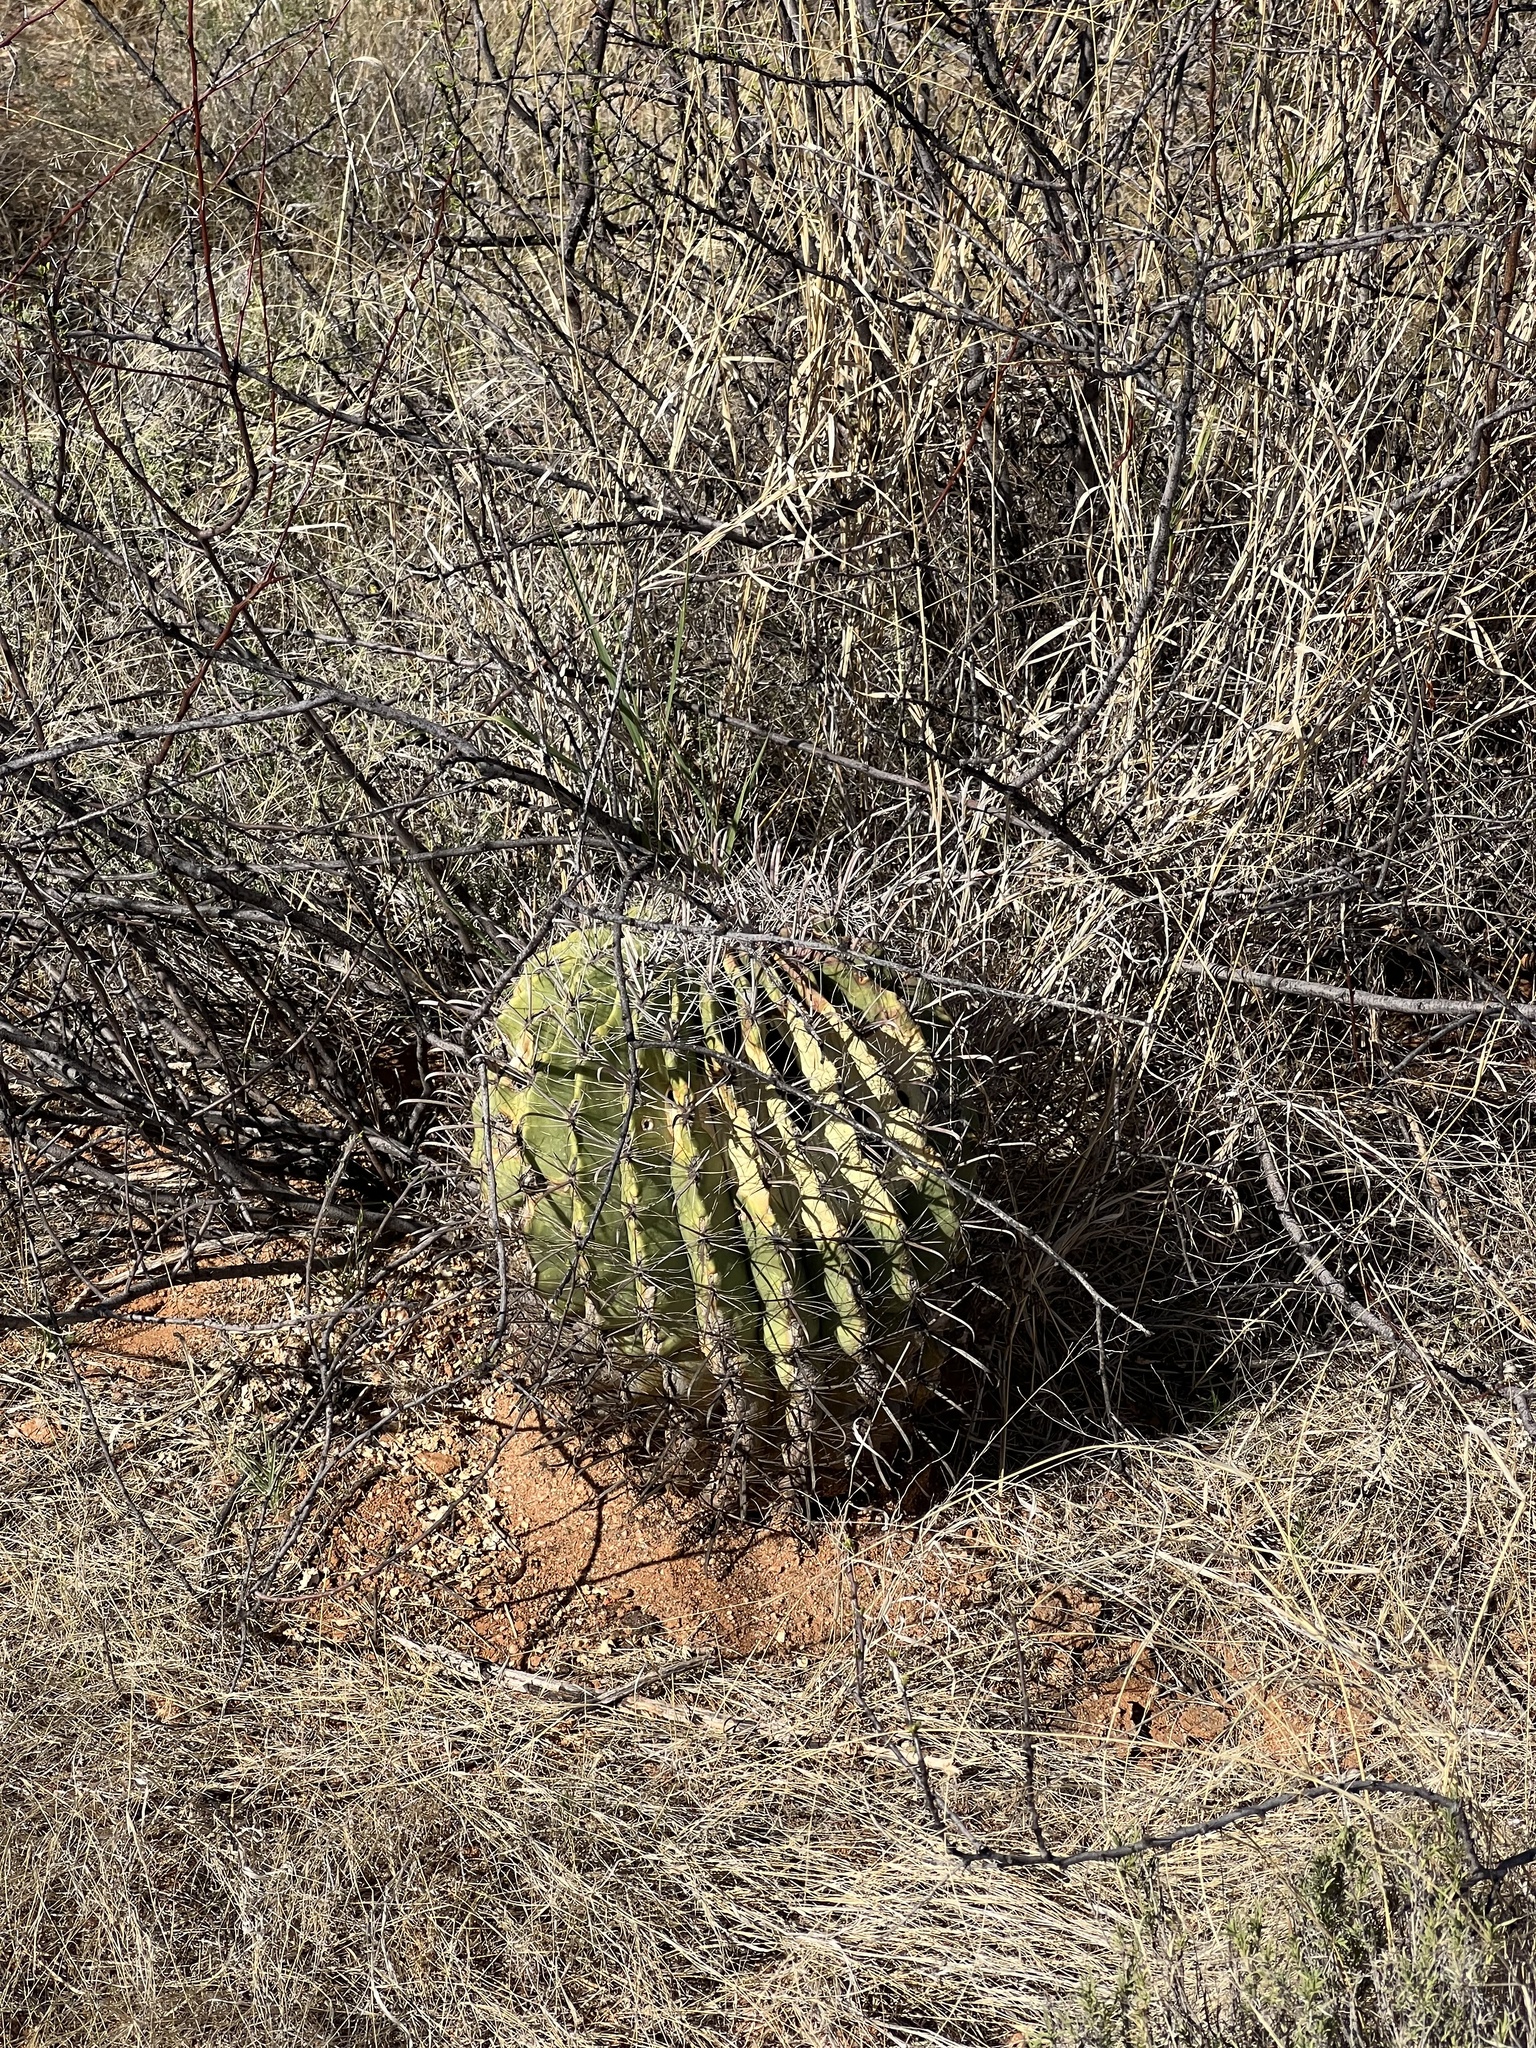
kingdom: Plantae
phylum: Tracheophyta
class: Magnoliopsida
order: Caryophyllales
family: Cactaceae
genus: Ferocactus
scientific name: Ferocactus wislizeni
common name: Candy barrel cactus
